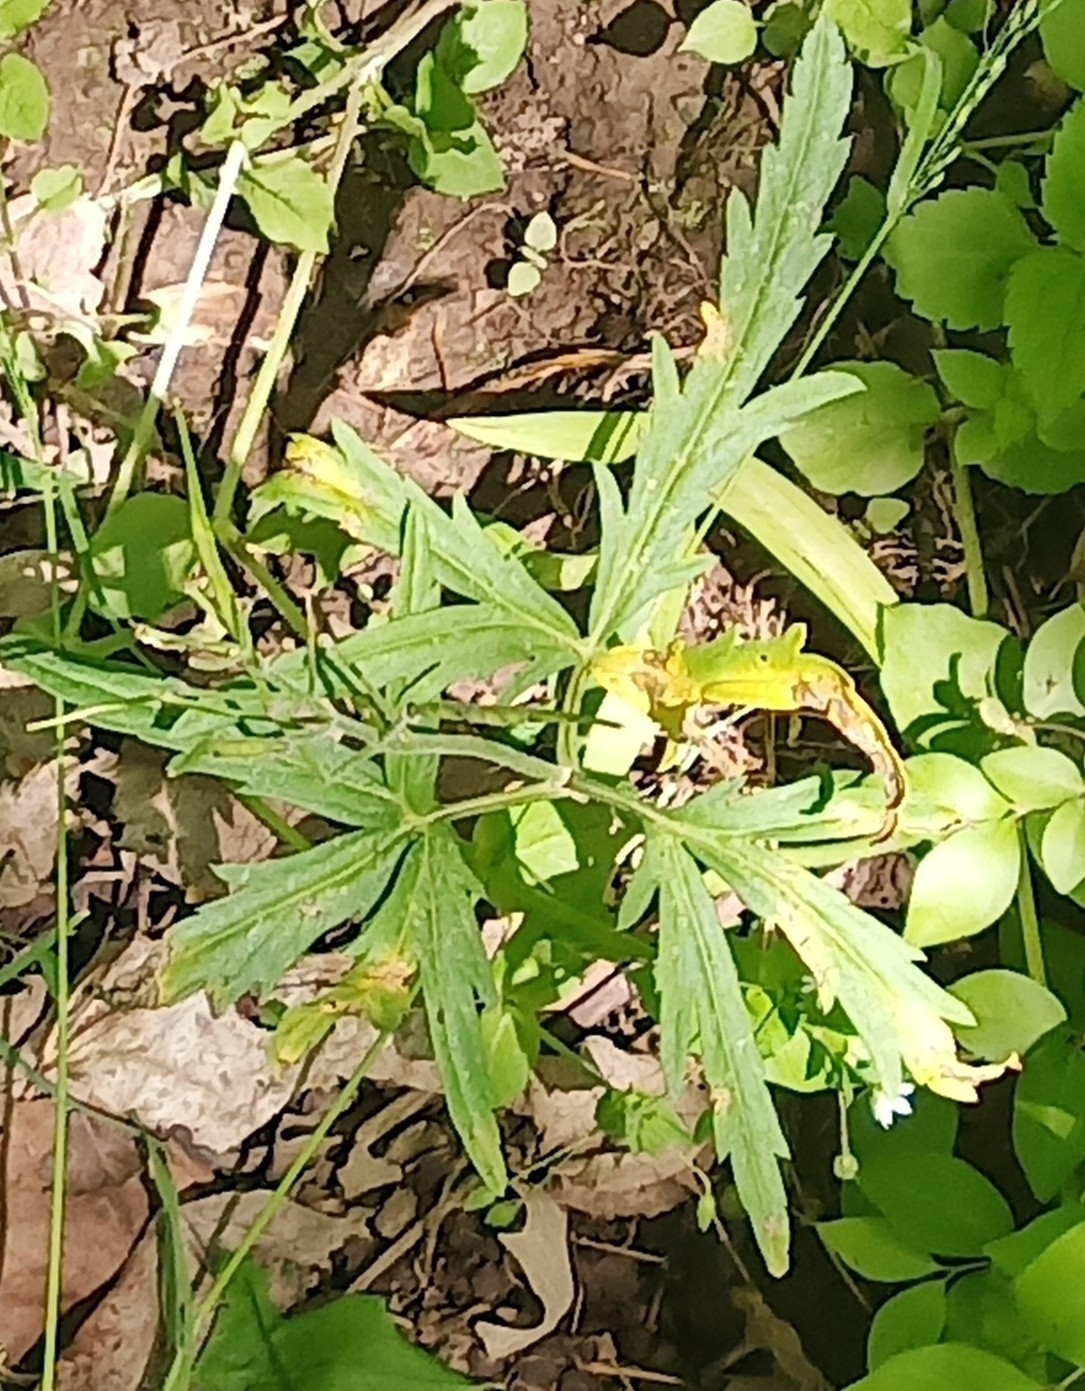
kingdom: Plantae
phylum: Tracheophyta
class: Magnoliopsida
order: Brassicales
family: Brassicaceae
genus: Cardamine
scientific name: Cardamine concatenata
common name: Cut-leaf toothcup
